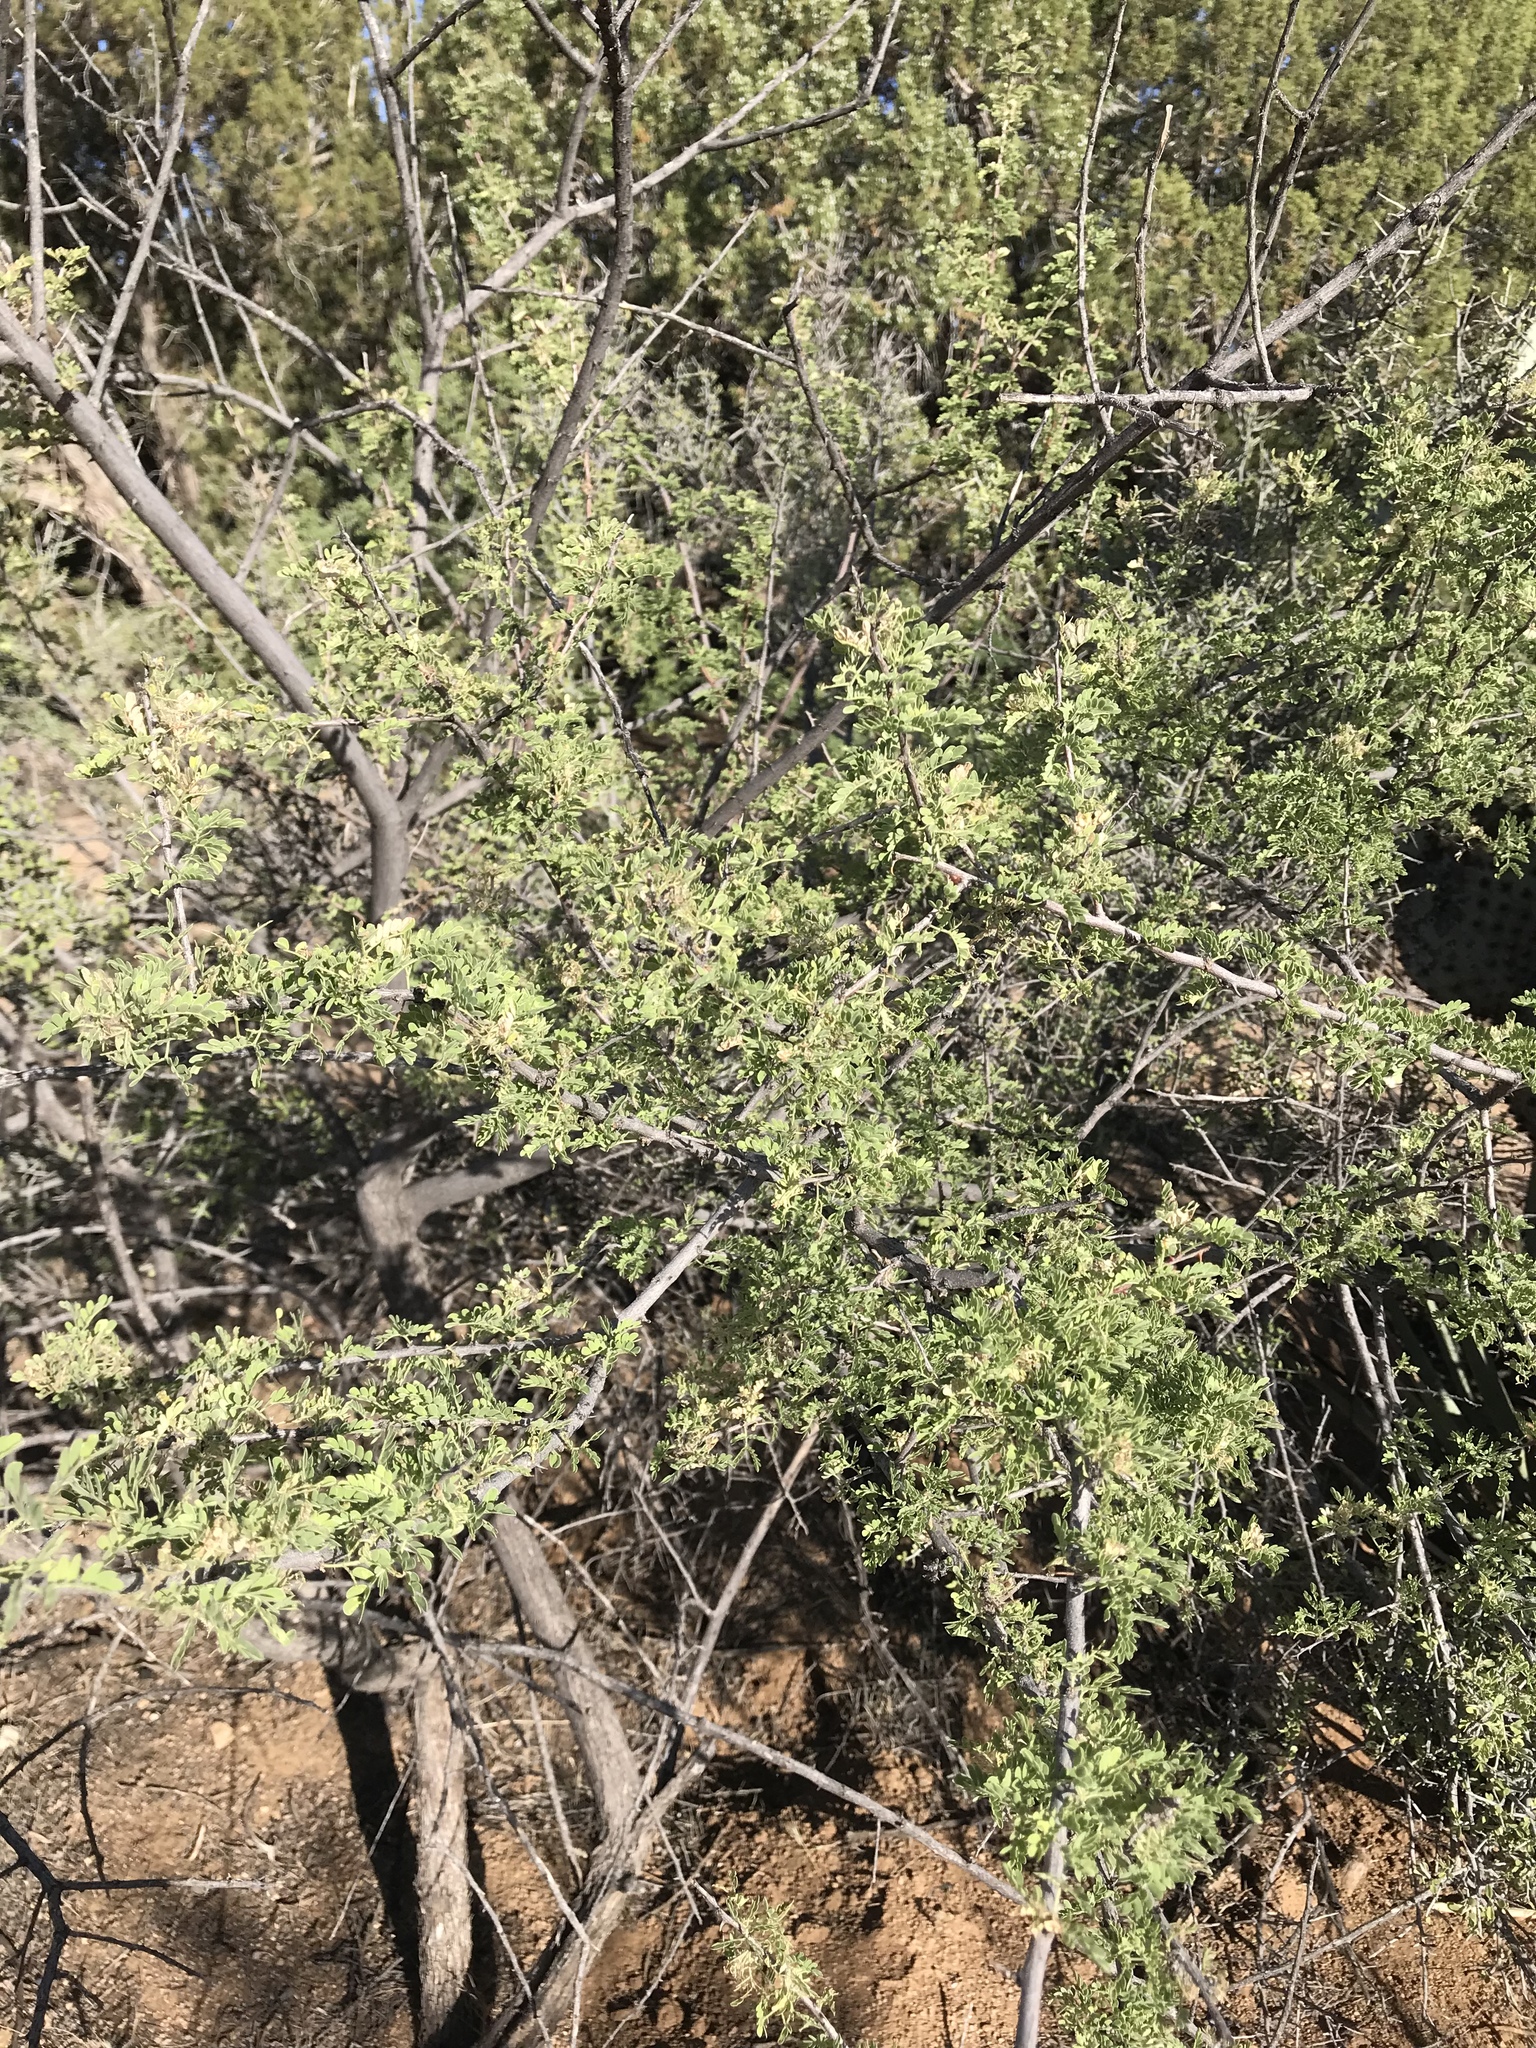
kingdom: Plantae
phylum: Tracheophyta
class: Magnoliopsida
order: Fabales
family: Fabaceae
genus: Senegalia
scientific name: Senegalia greggii
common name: Texas-mimosa
